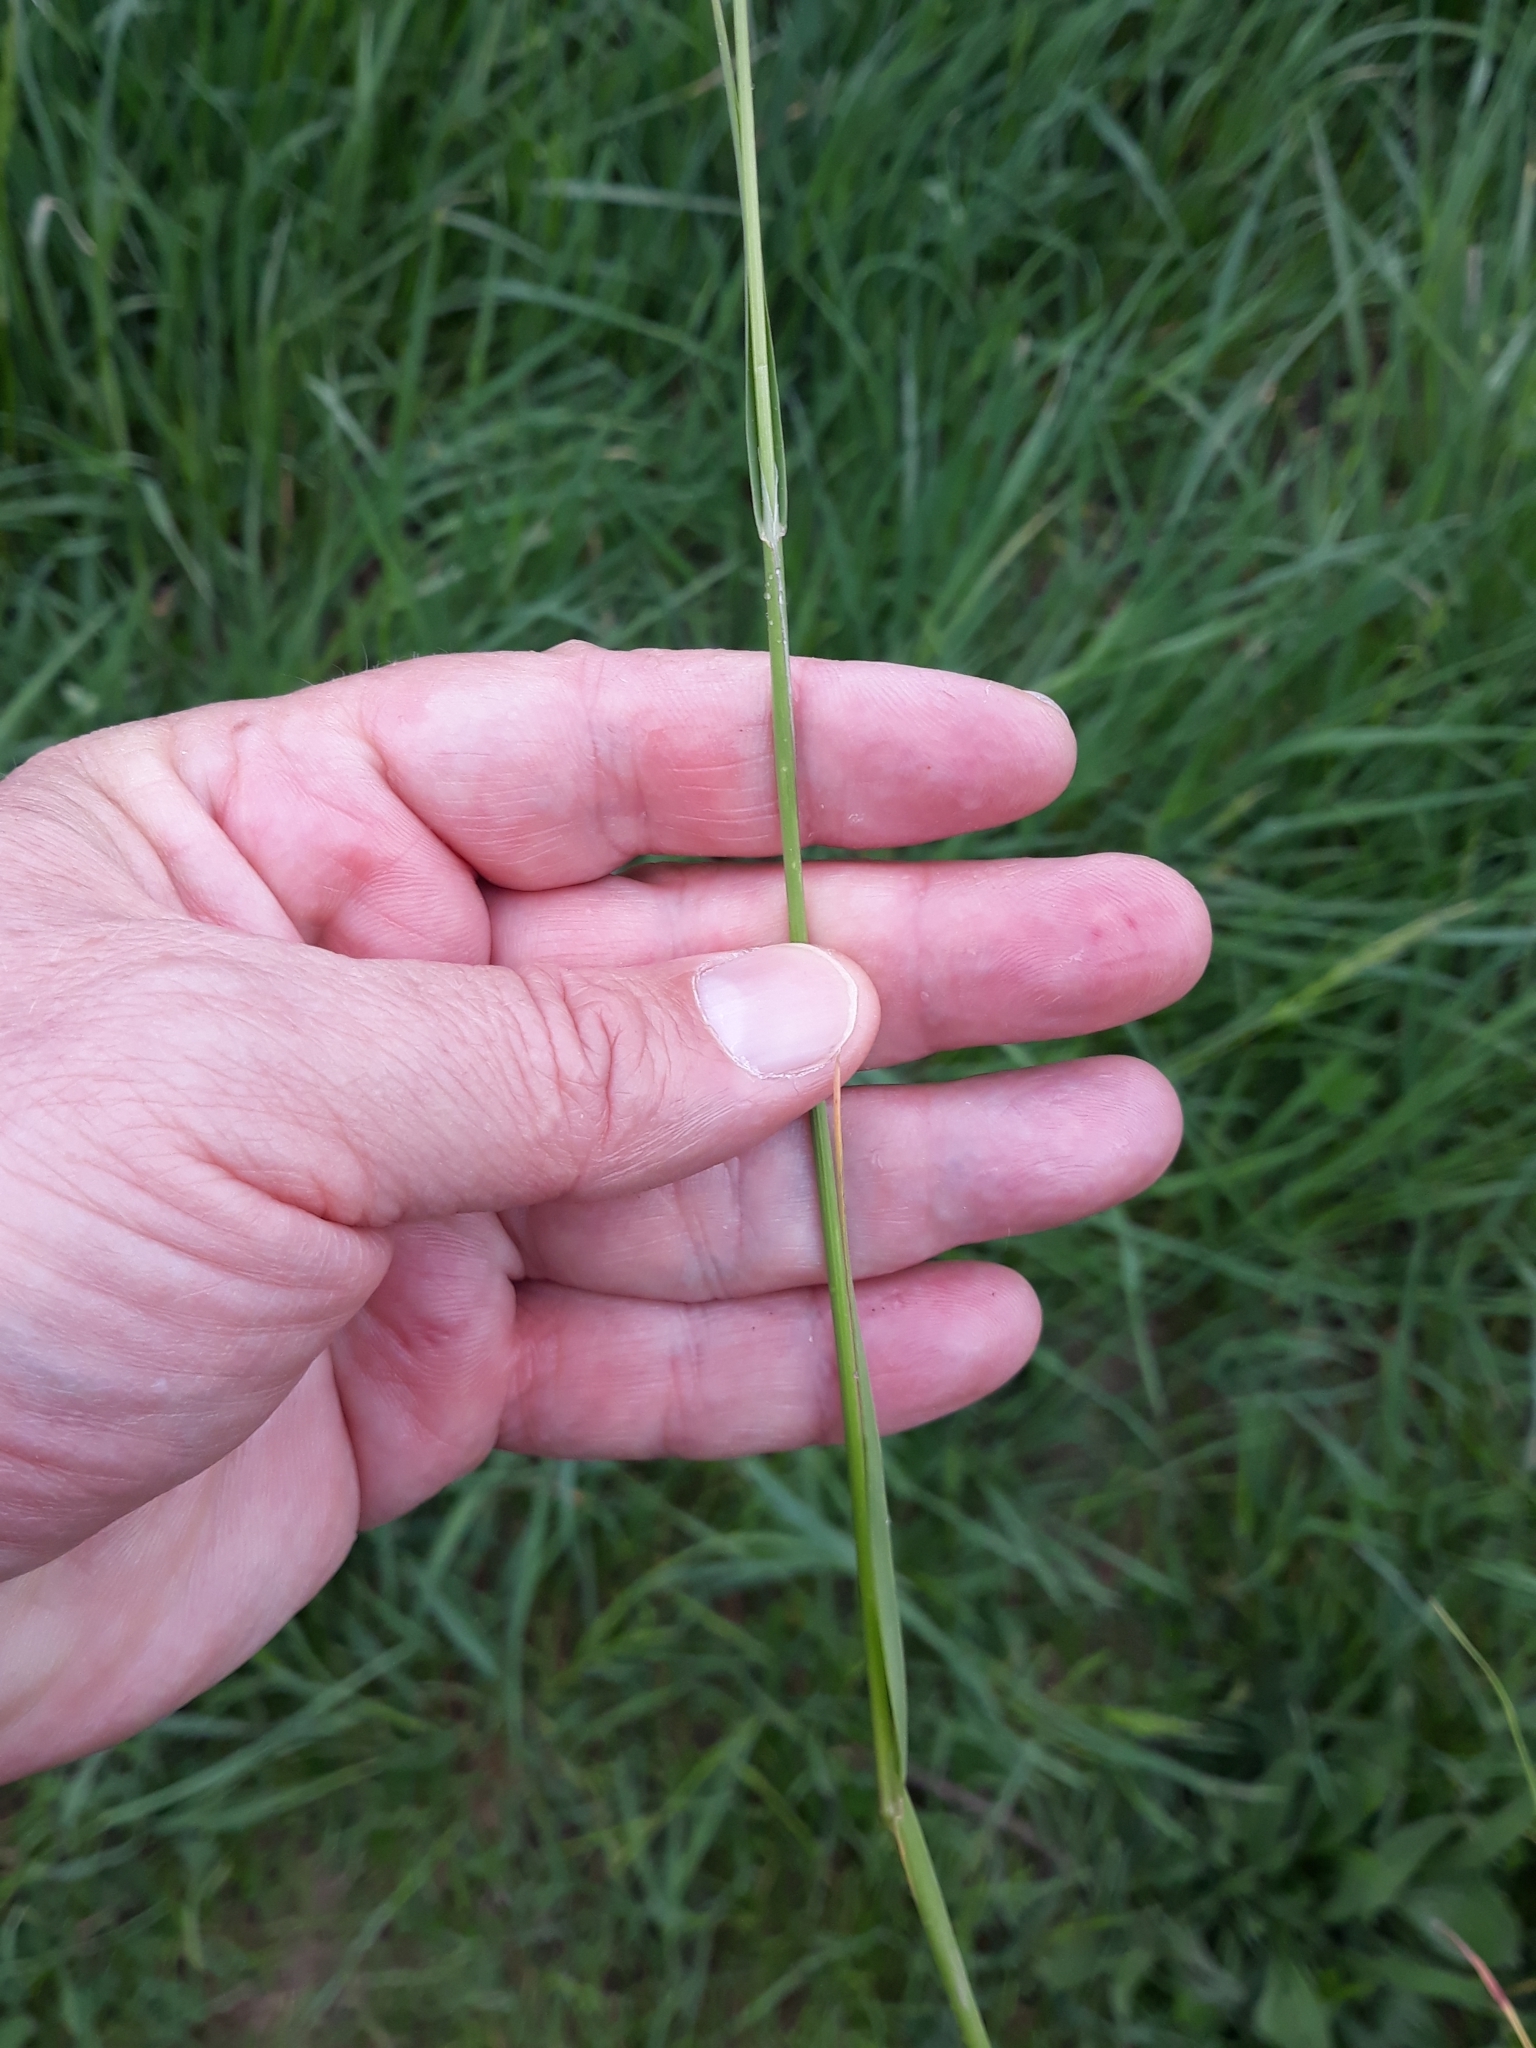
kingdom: Plantae
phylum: Tracheophyta
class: Liliopsida
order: Poales
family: Poaceae
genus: Poa
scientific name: Poa trivialis
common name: Rough bluegrass
